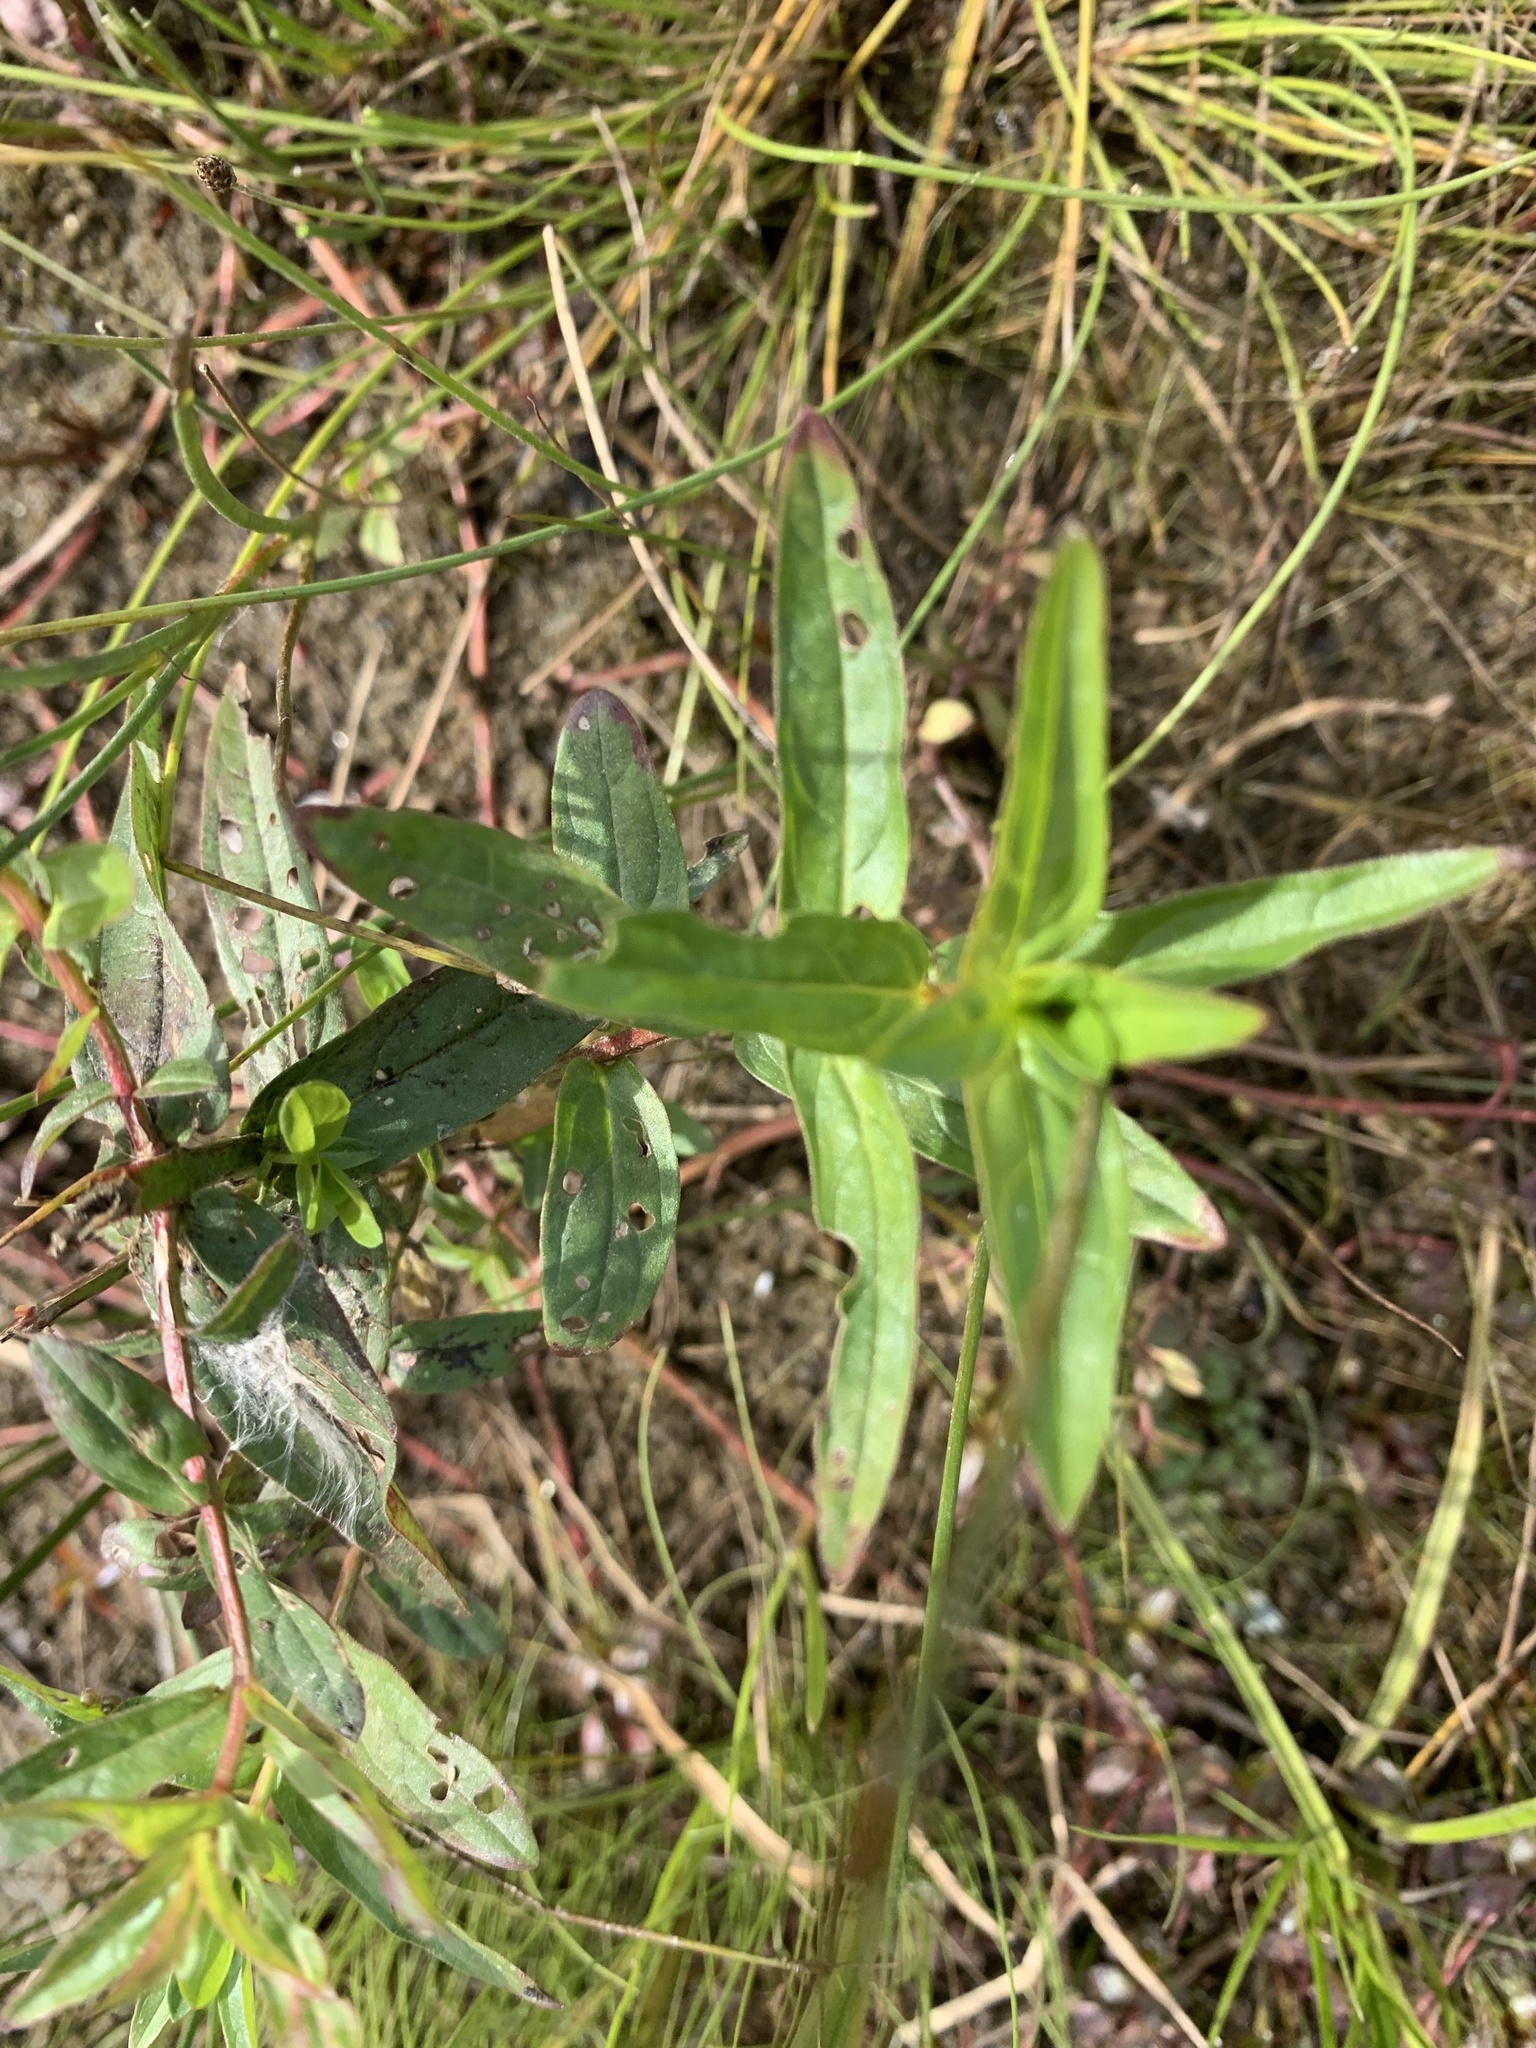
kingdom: Plantae
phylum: Tracheophyta
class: Magnoliopsida
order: Myrtales
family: Lythraceae
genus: Lythrum
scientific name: Lythrum salicaria
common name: Purple loosestrife
